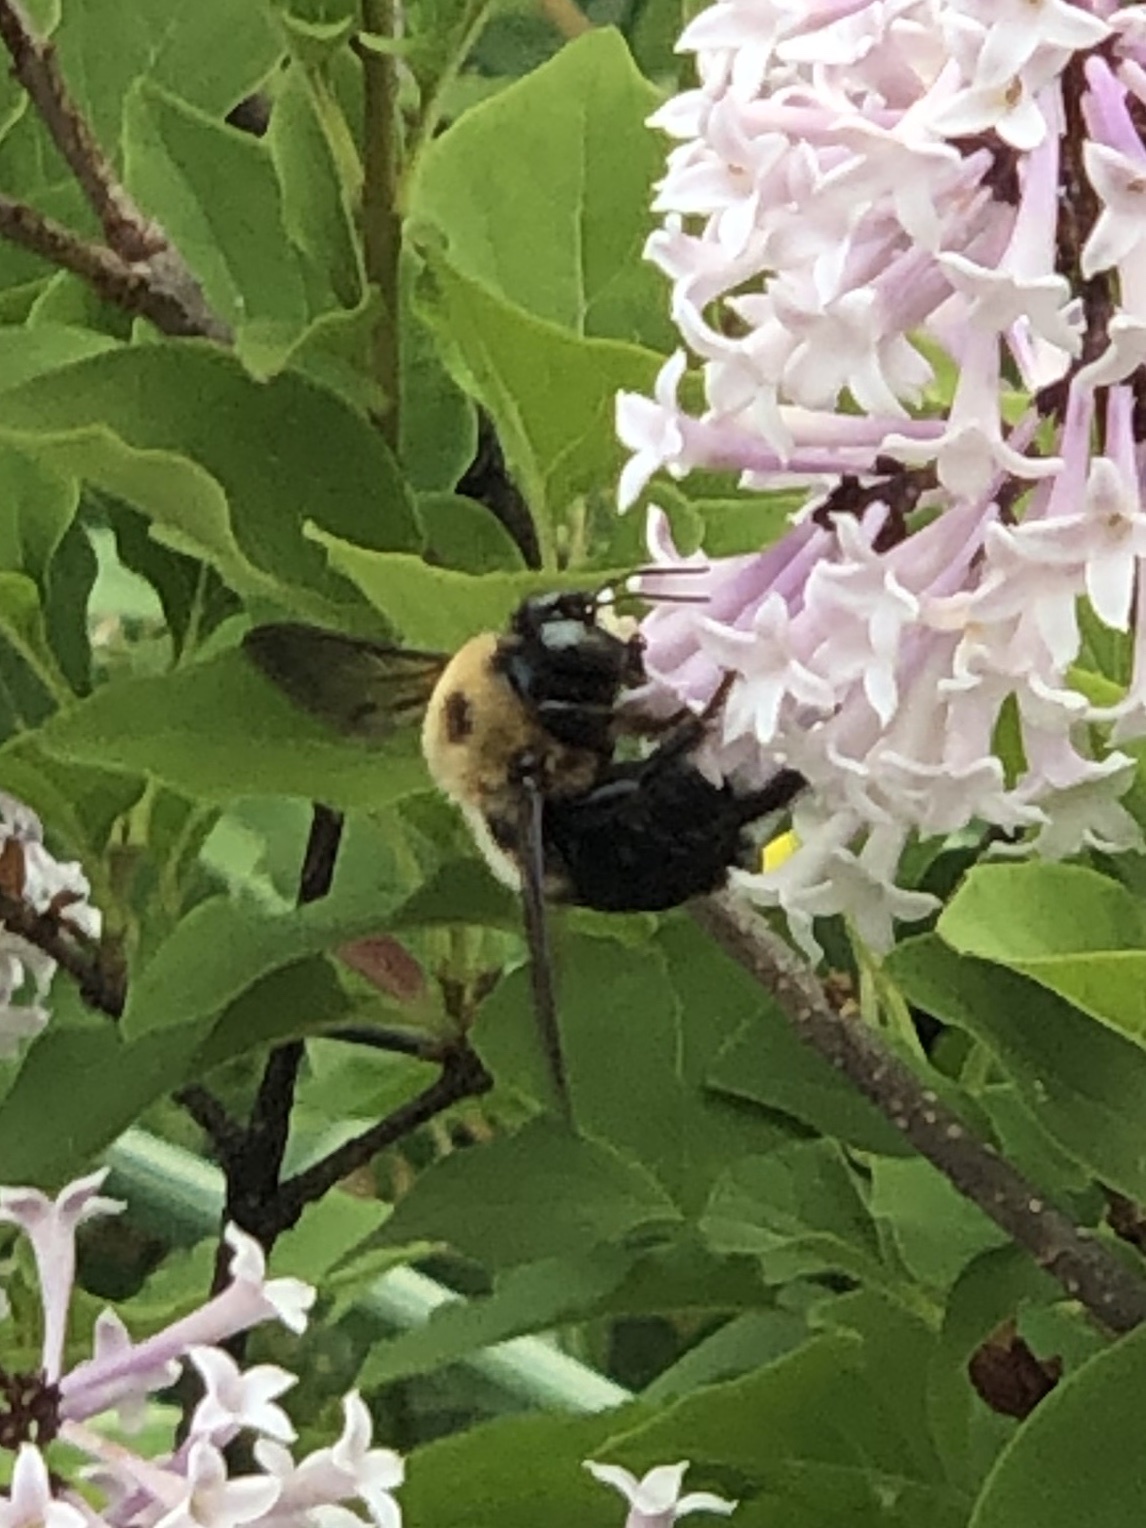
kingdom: Animalia
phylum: Arthropoda
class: Insecta
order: Hymenoptera
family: Apidae
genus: Xylocopa
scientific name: Xylocopa virginica
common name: Carpenter bee
